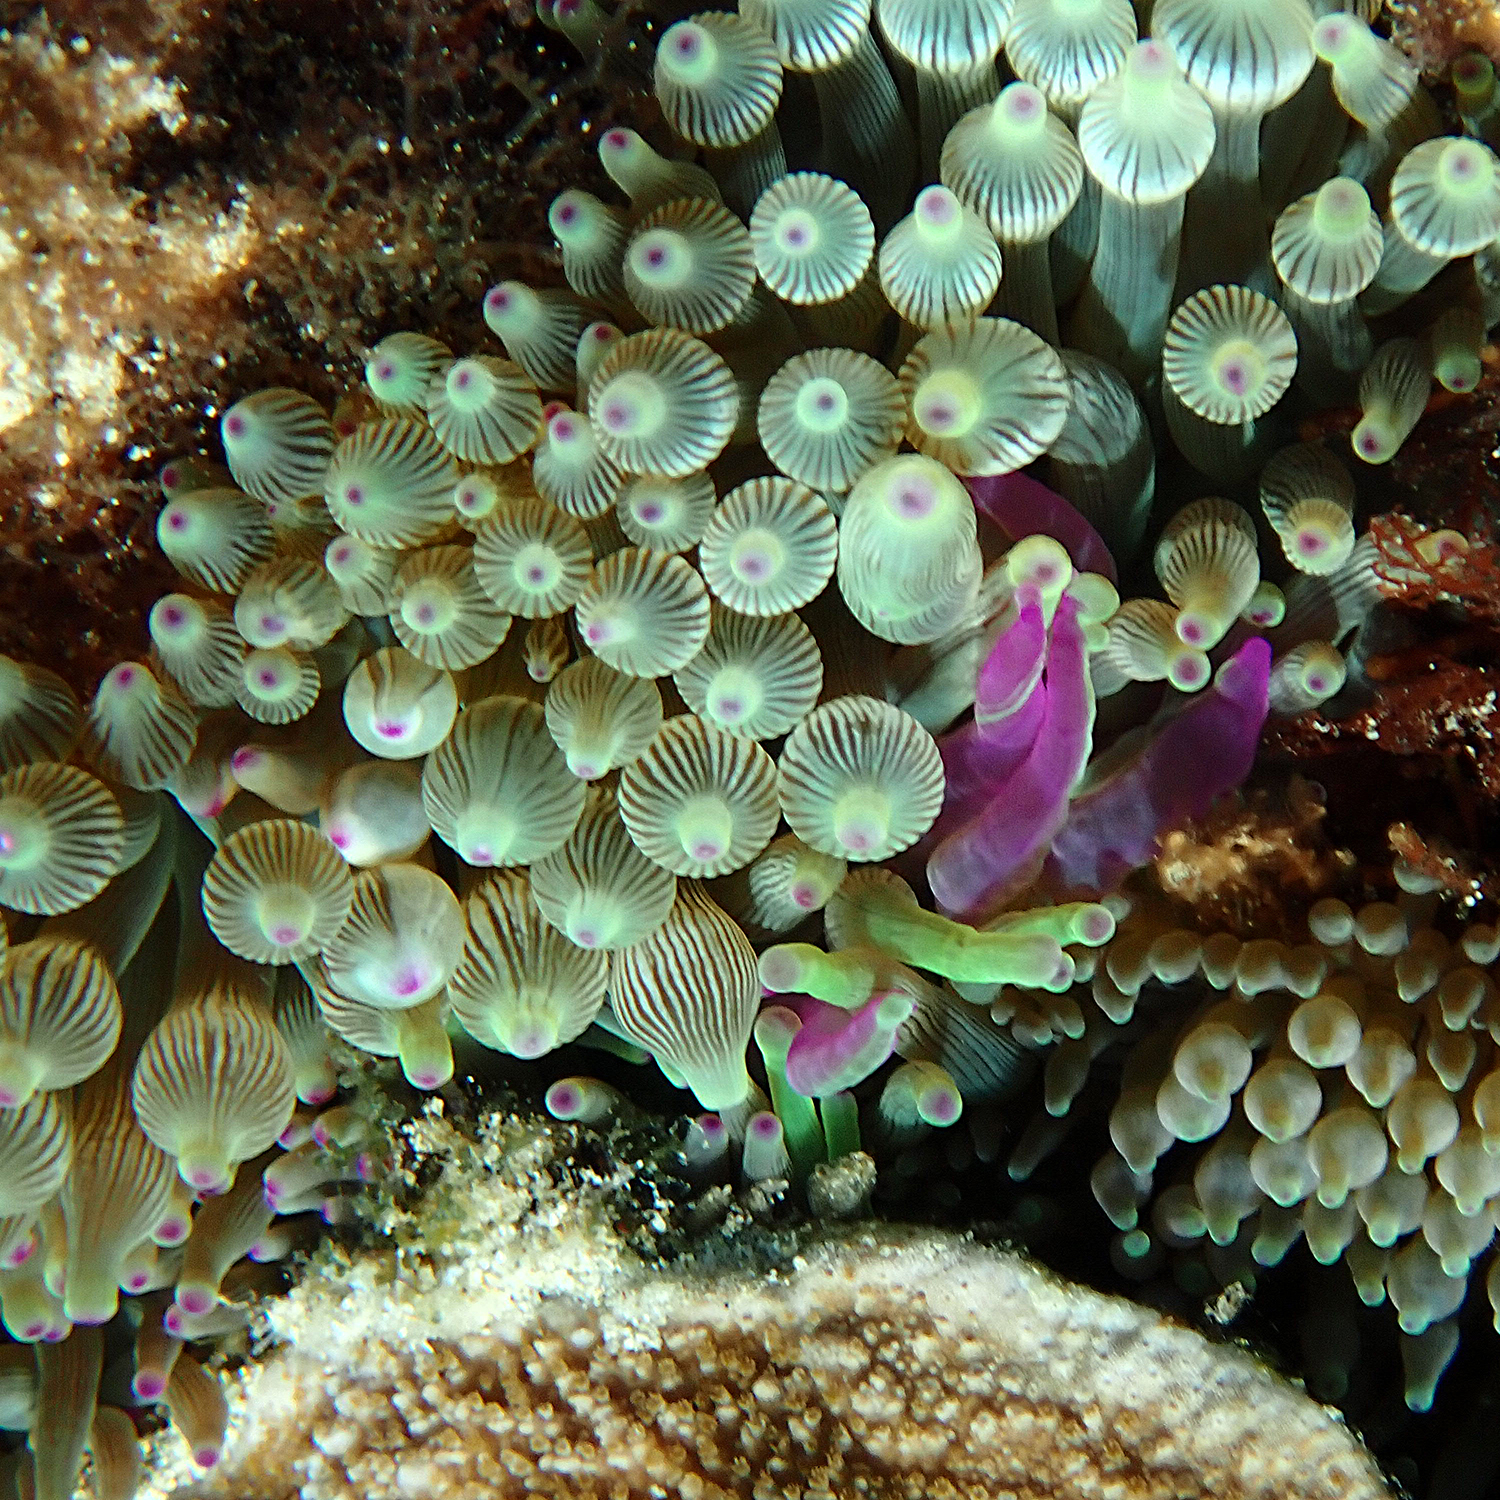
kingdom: Animalia
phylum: Cnidaria
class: Anthozoa
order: Actiniaria
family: Actiniidae
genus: Entacmaea
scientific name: Entacmaea quadricolor
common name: Bulb tentacle sea anemone
